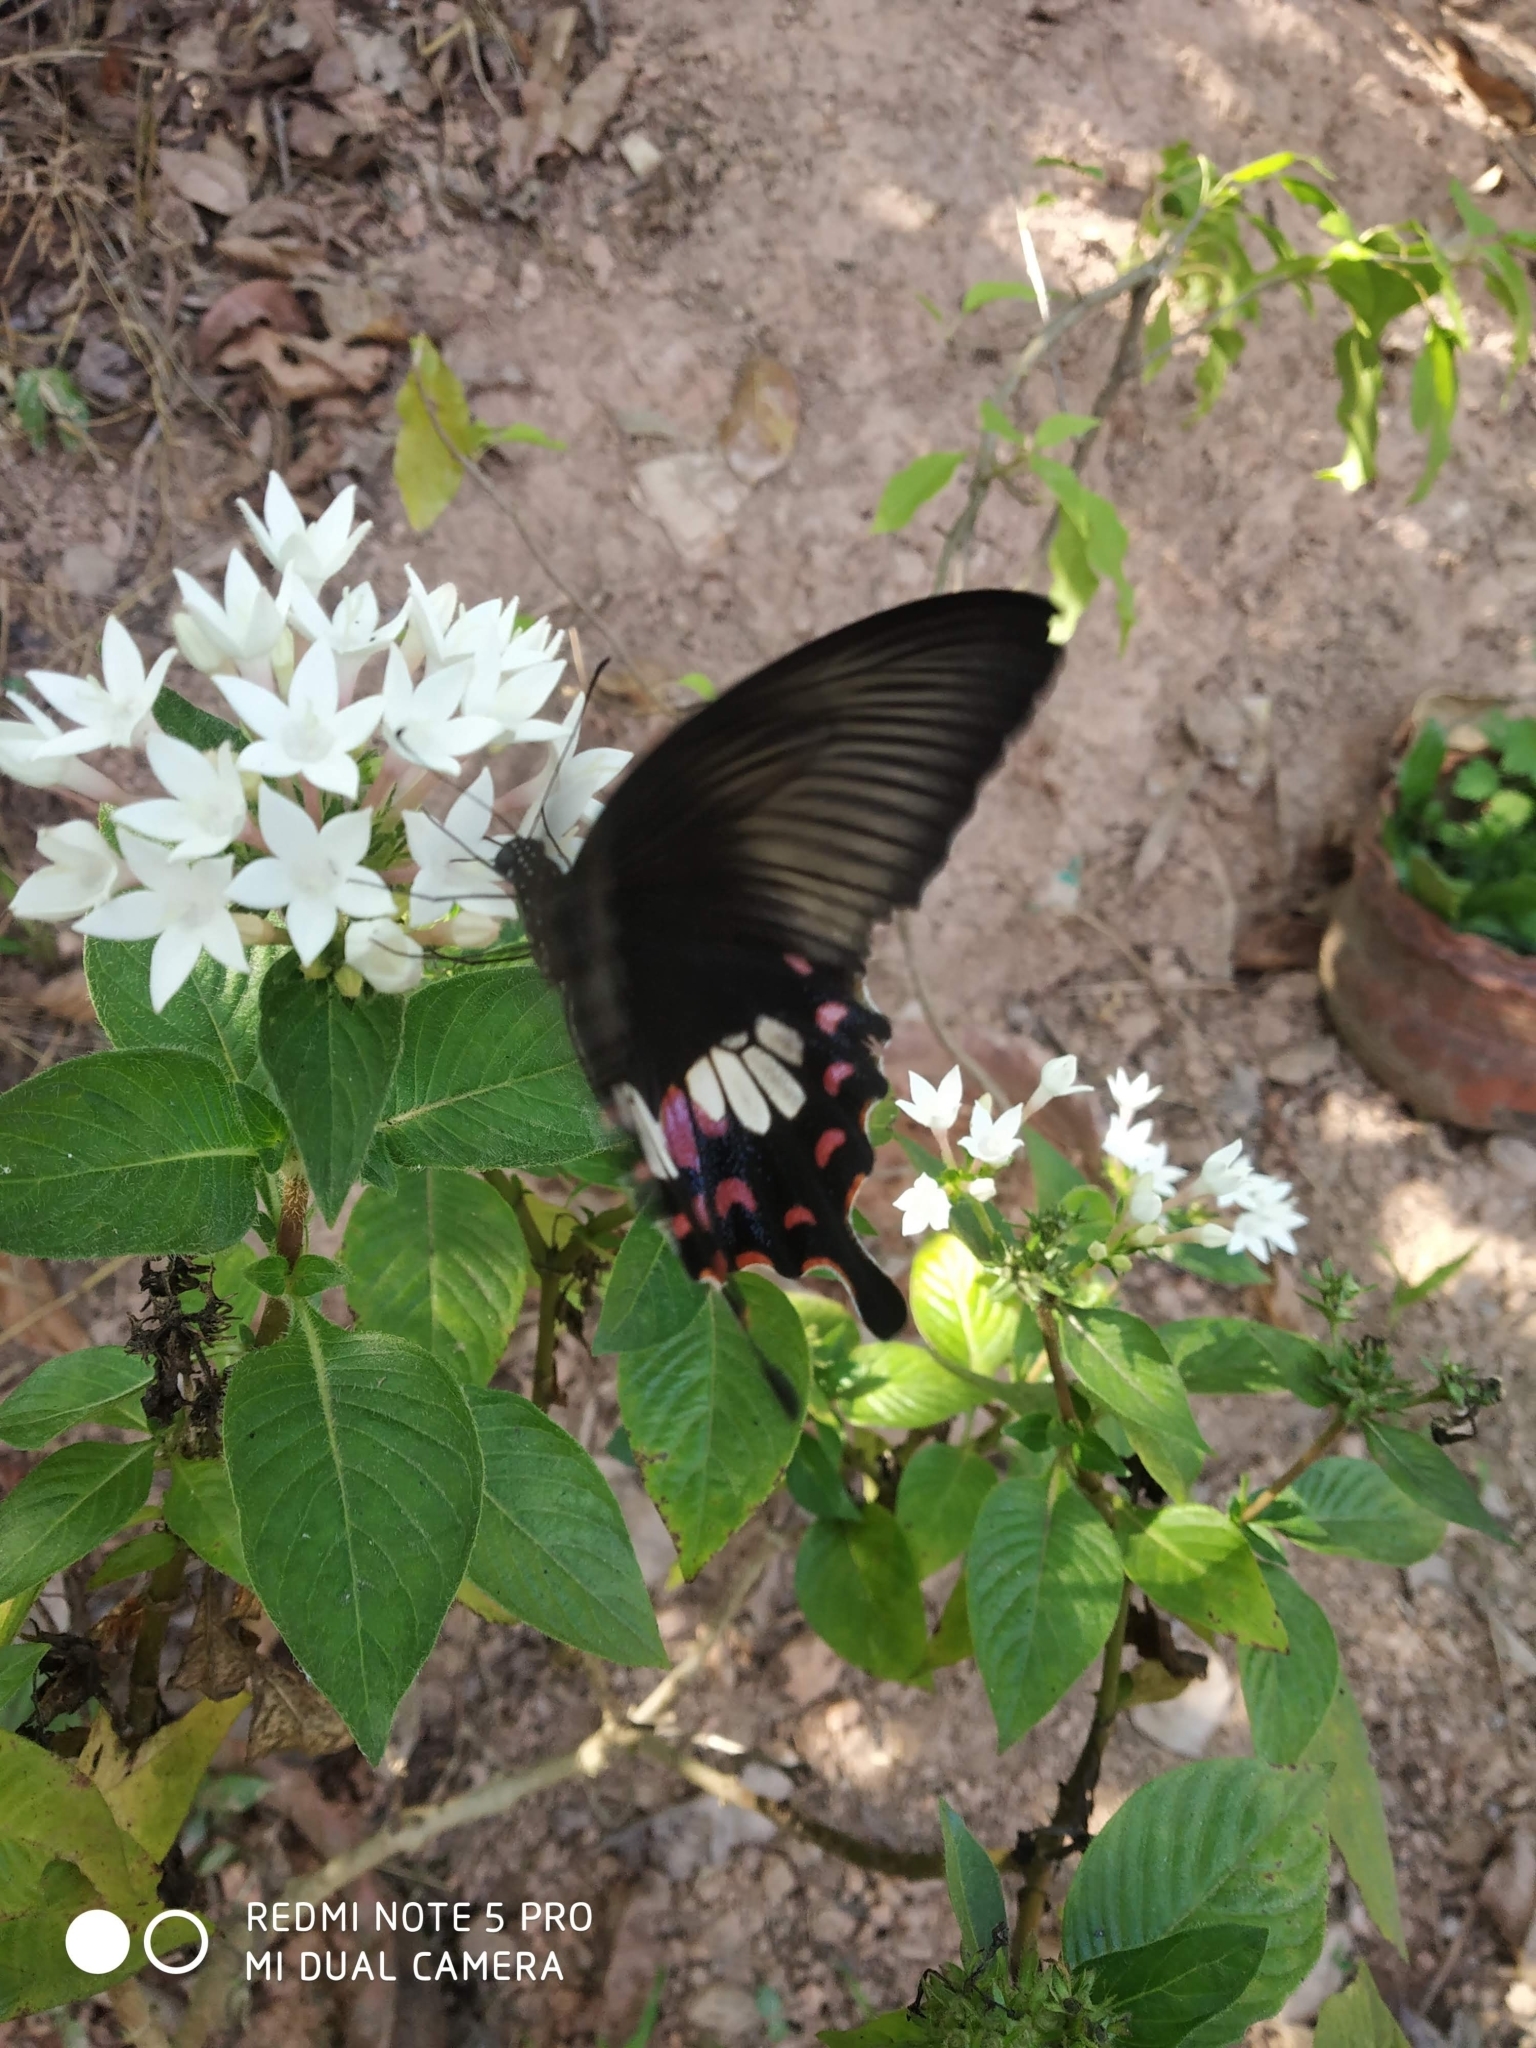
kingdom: Animalia
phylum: Arthropoda
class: Insecta
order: Lepidoptera
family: Papilionidae
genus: Papilio
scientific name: Papilio polytes
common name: Common mormon
